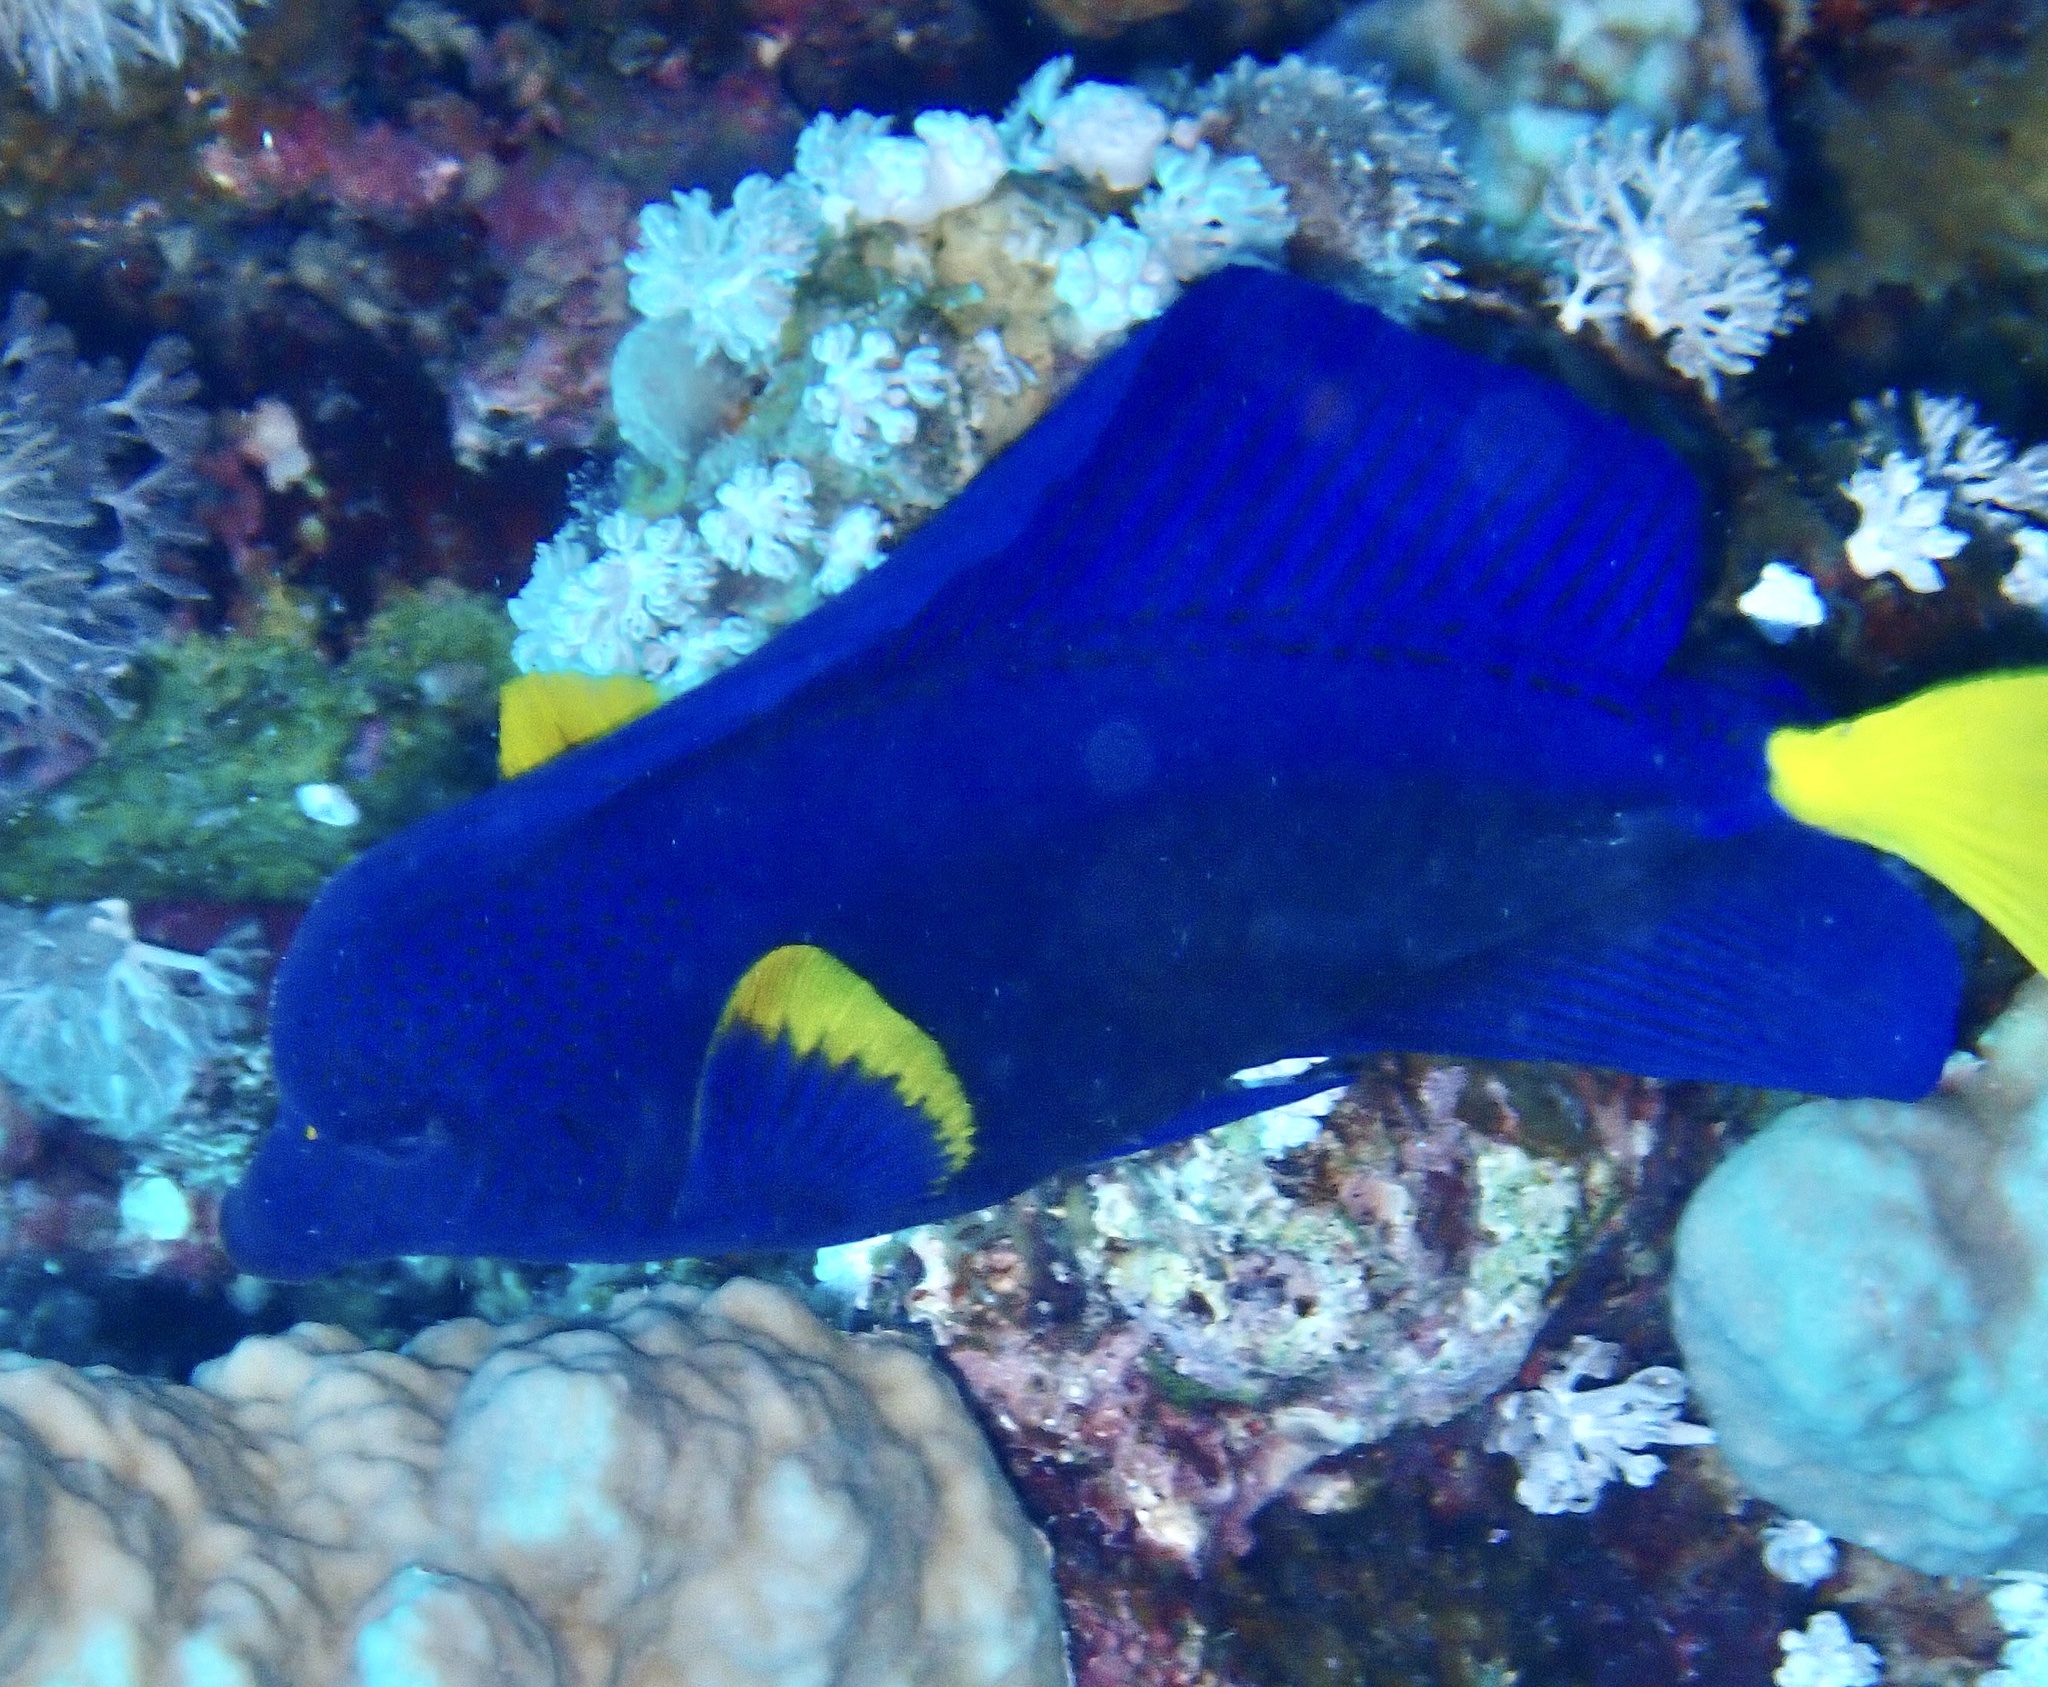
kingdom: Animalia
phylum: Chordata
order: Perciformes
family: Acanthuridae
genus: Zebrasoma
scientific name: Zebrasoma xanthurum
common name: Purple tang
